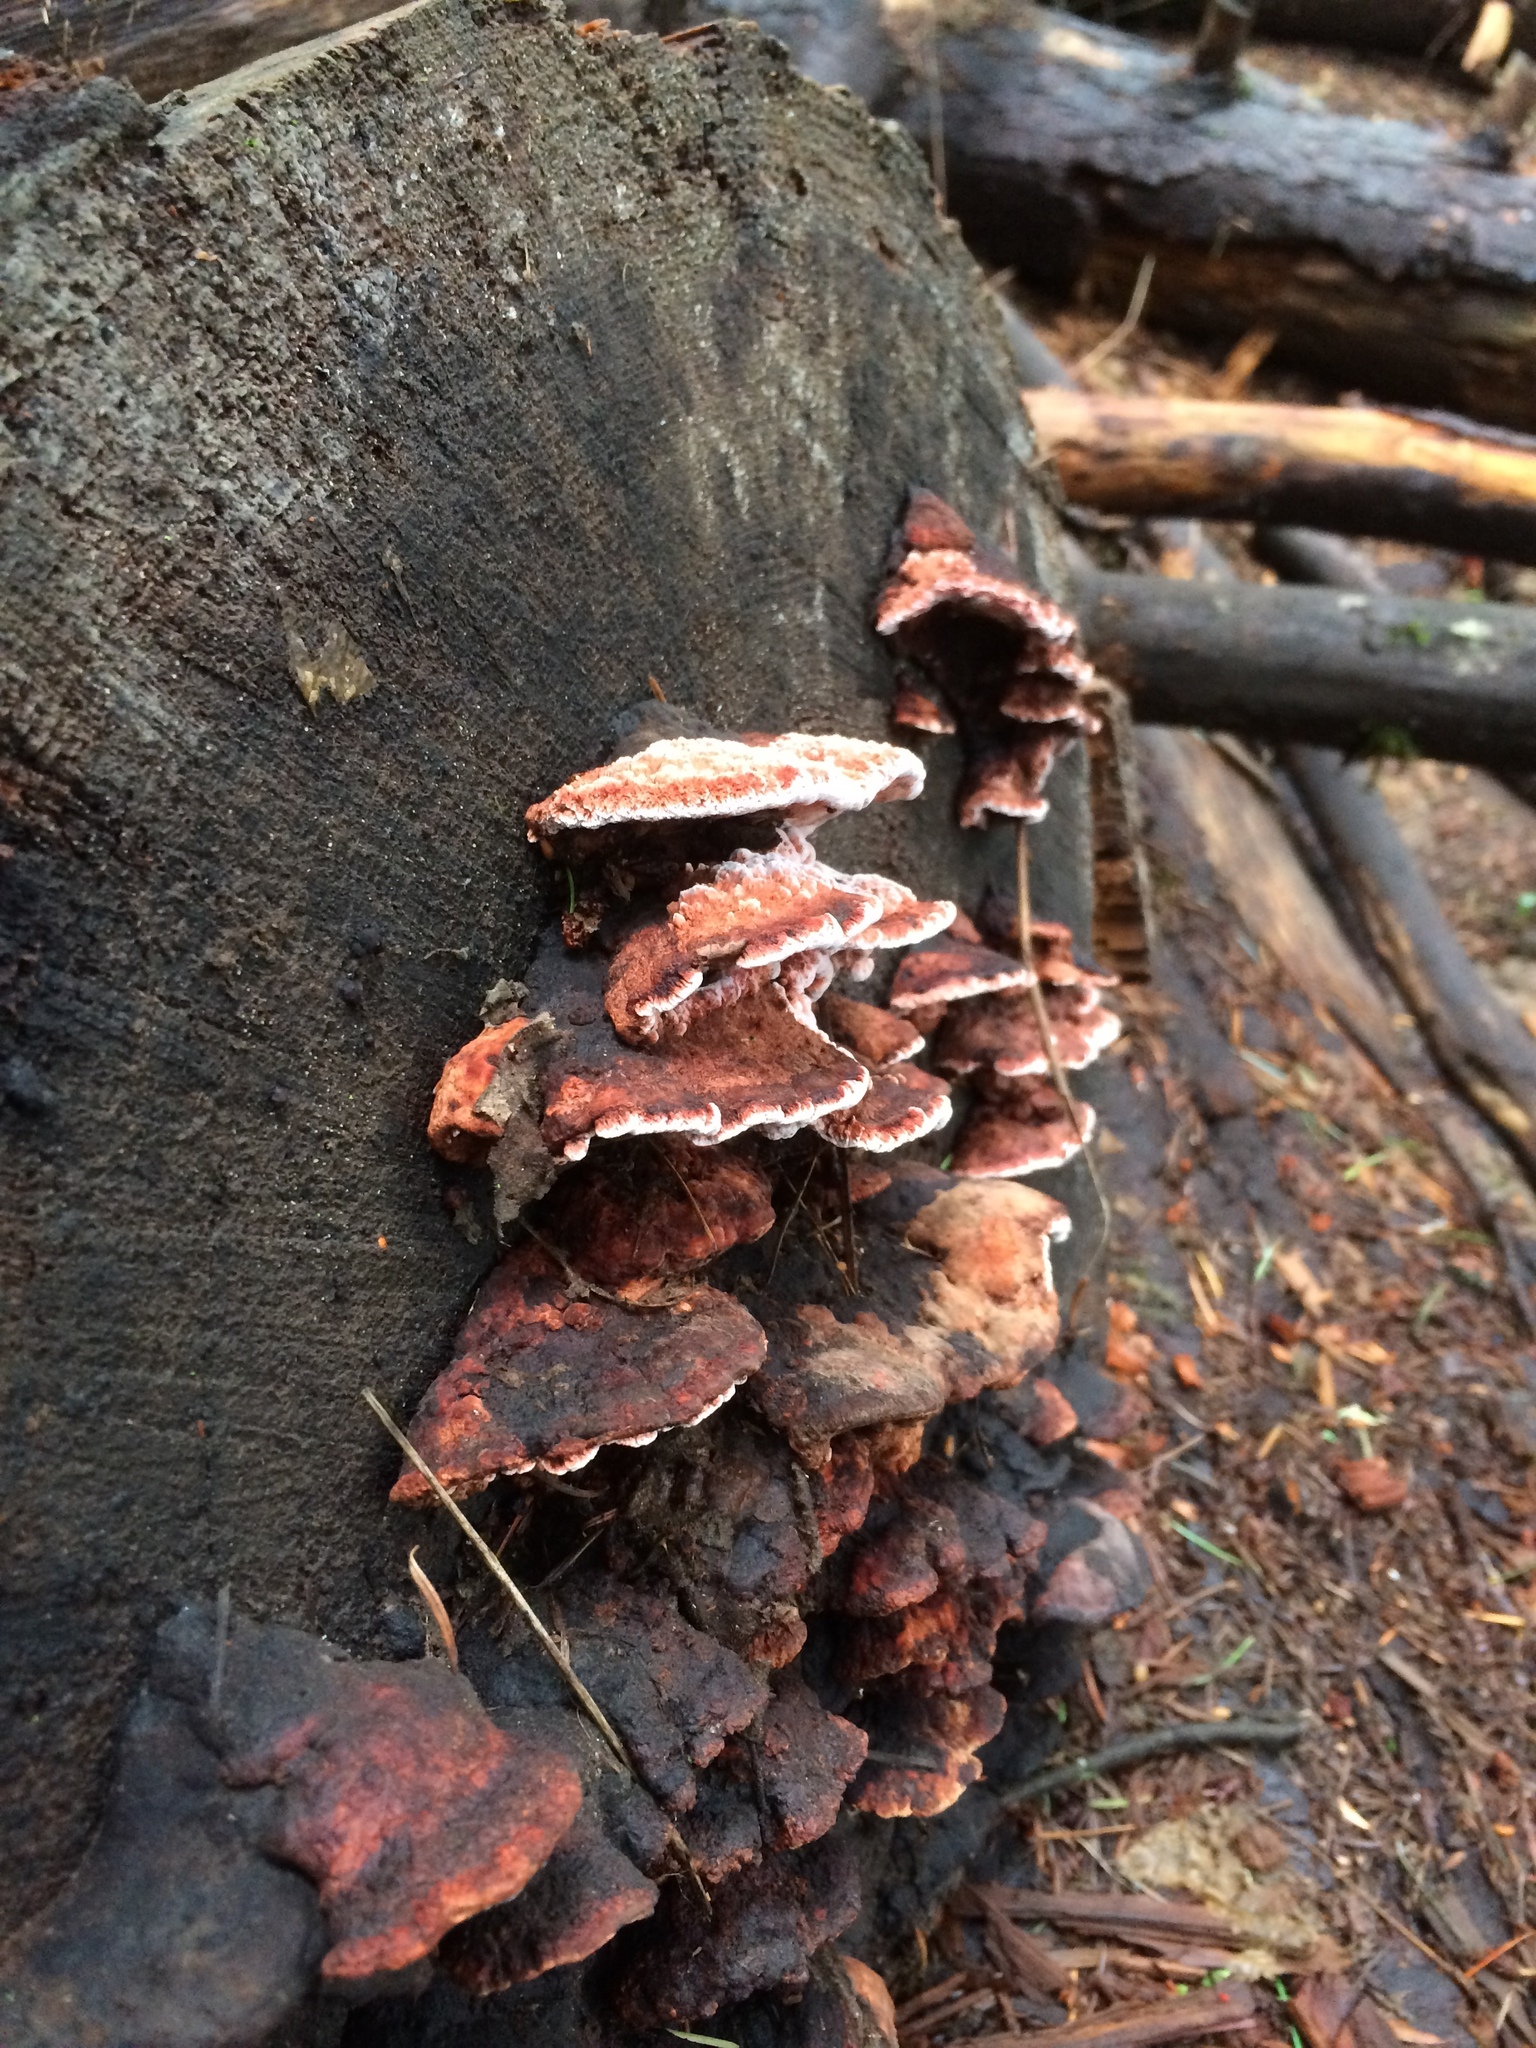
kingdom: Fungi
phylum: Basidiomycota
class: Agaricomycetes
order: Polyporales
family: Fomitopsidaceae
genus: Rhodofomes
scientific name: Rhodofomes cajanderi
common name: Rosy conk
